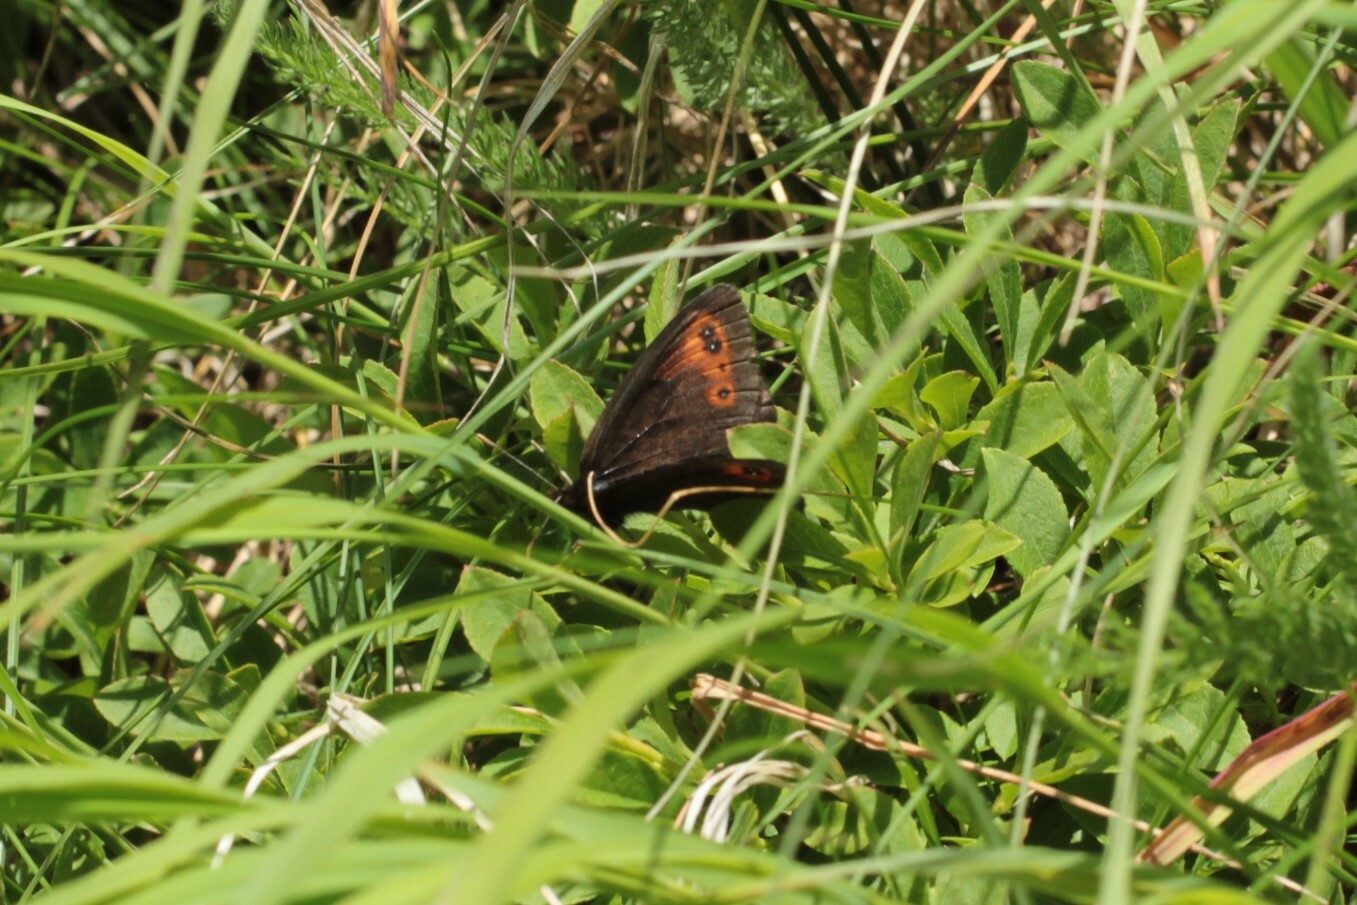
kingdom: Animalia
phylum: Arthropoda
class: Insecta
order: Lepidoptera
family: Nymphalidae
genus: Erebia
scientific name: Erebia epipsodea
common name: Common alpine
